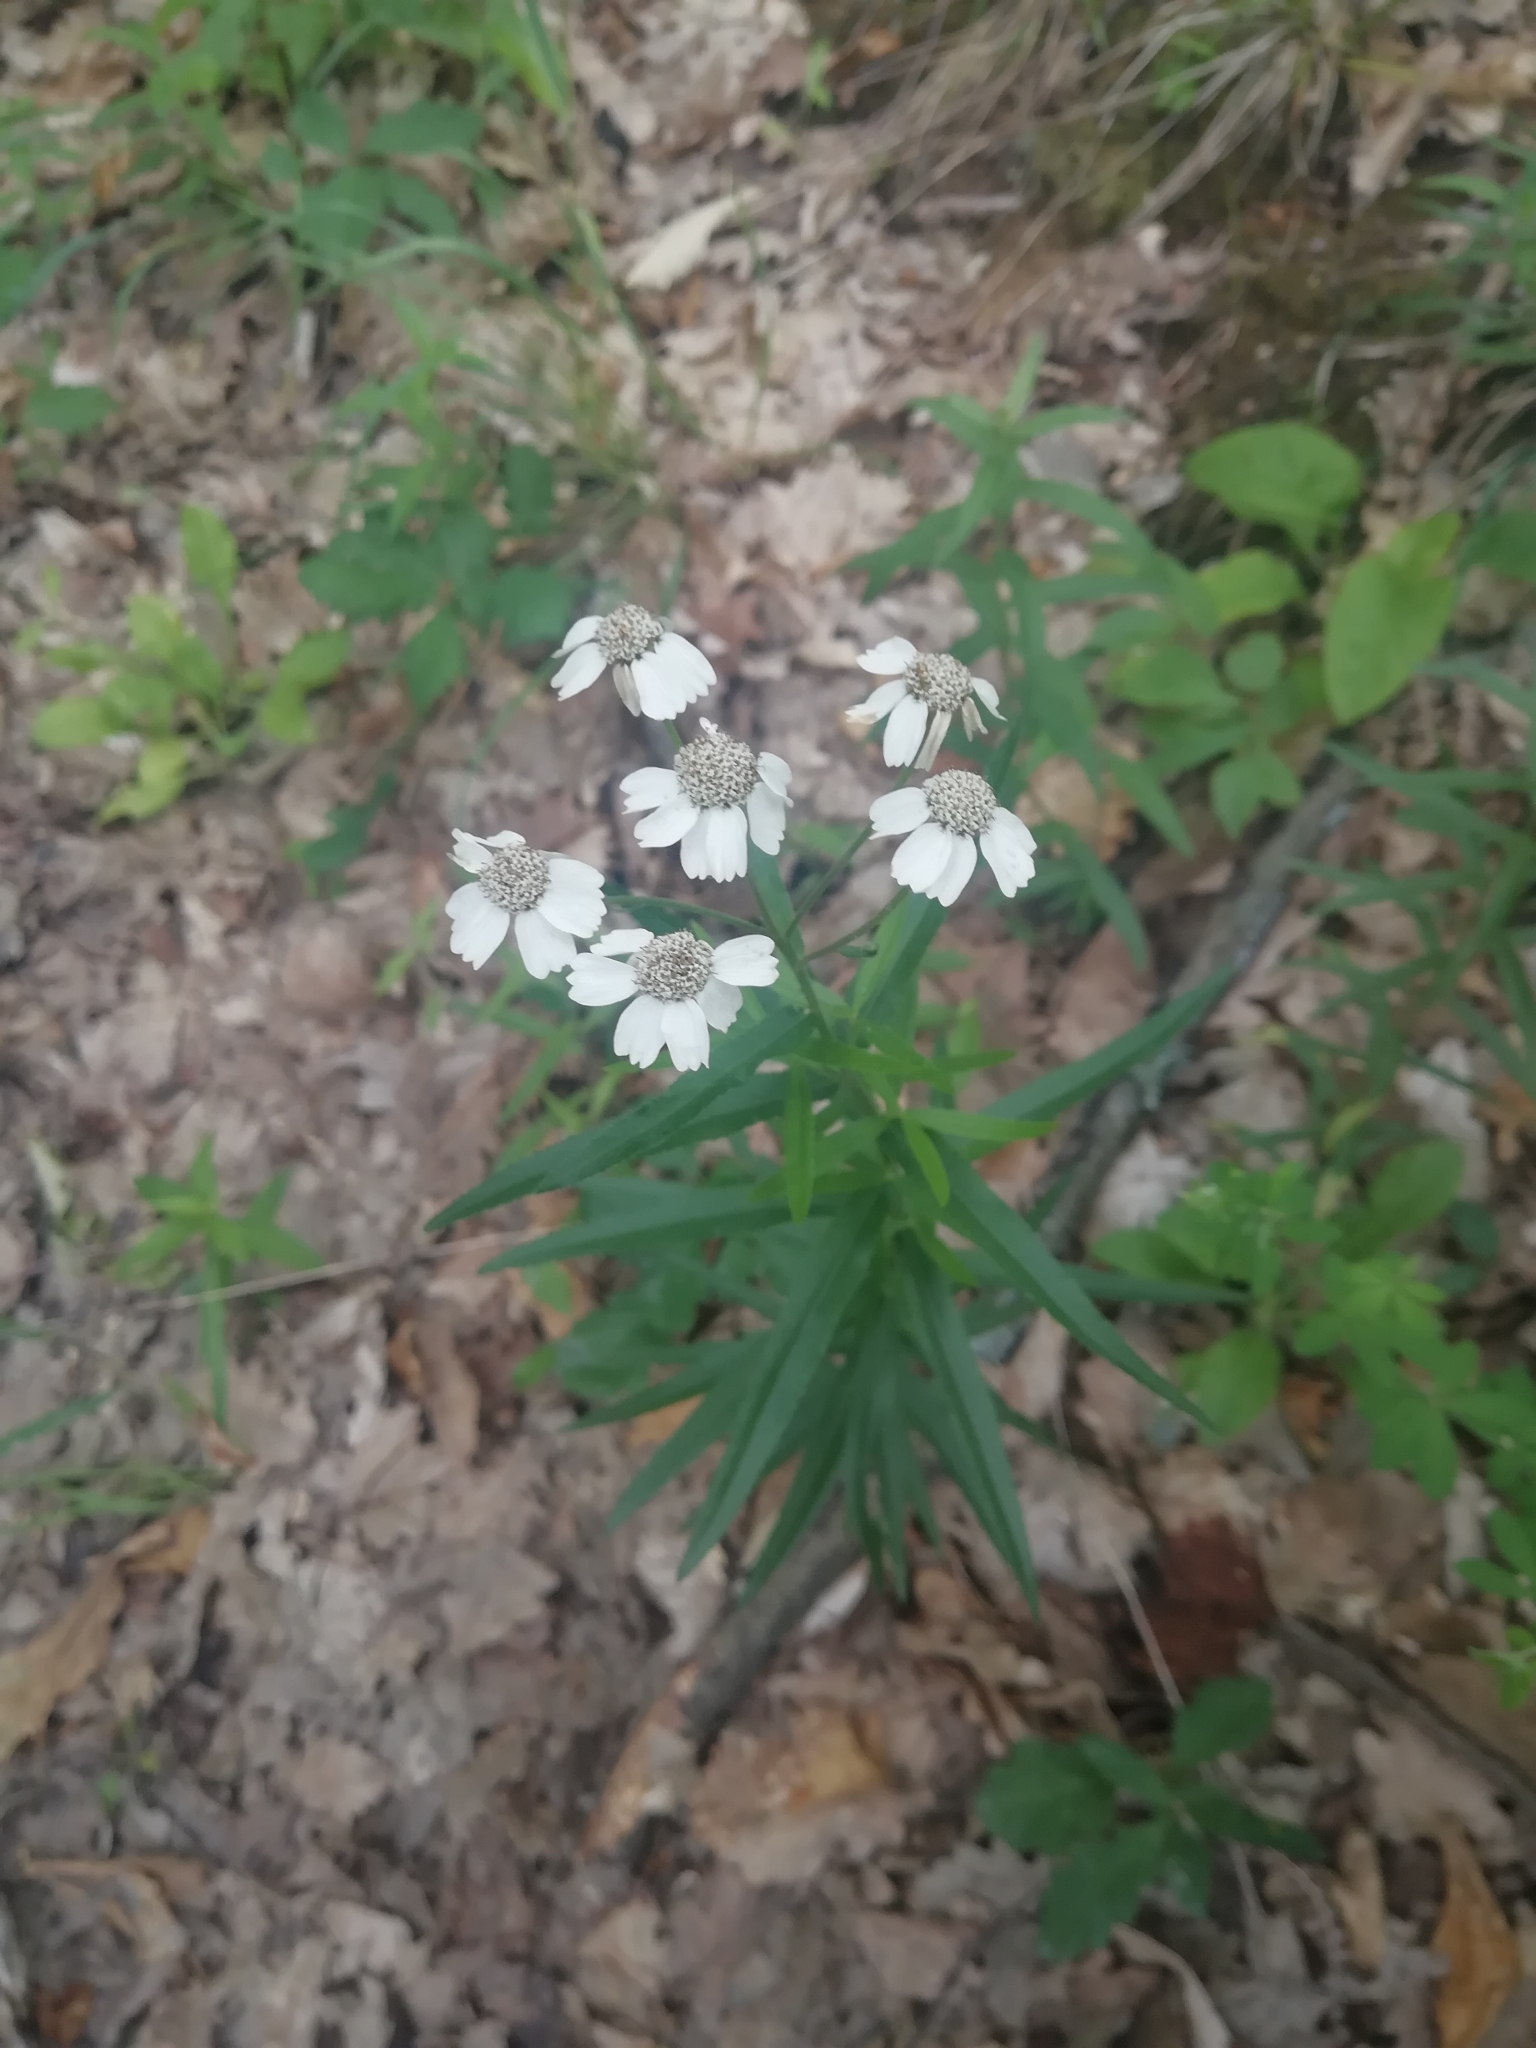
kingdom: Plantae
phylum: Tracheophyta
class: Magnoliopsida
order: Asterales
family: Asteraceae
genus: Achillea
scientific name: Achillea biserrata
